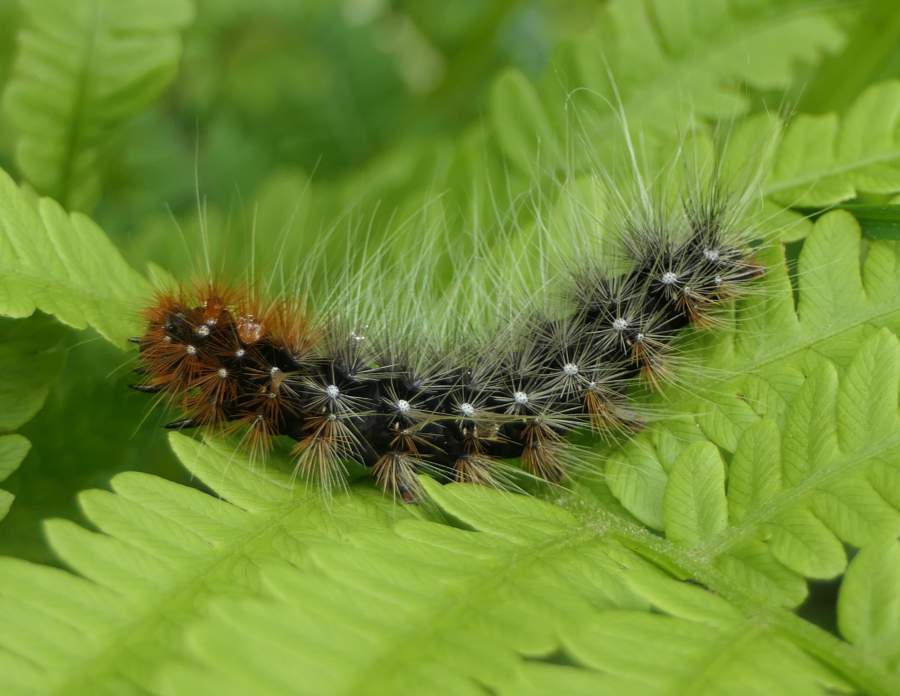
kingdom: Animalia
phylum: Arthropoda
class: Insecta
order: Lepidoptera
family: Erebidae
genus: Arctia
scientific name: Arctia caja
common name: Garden tiger
